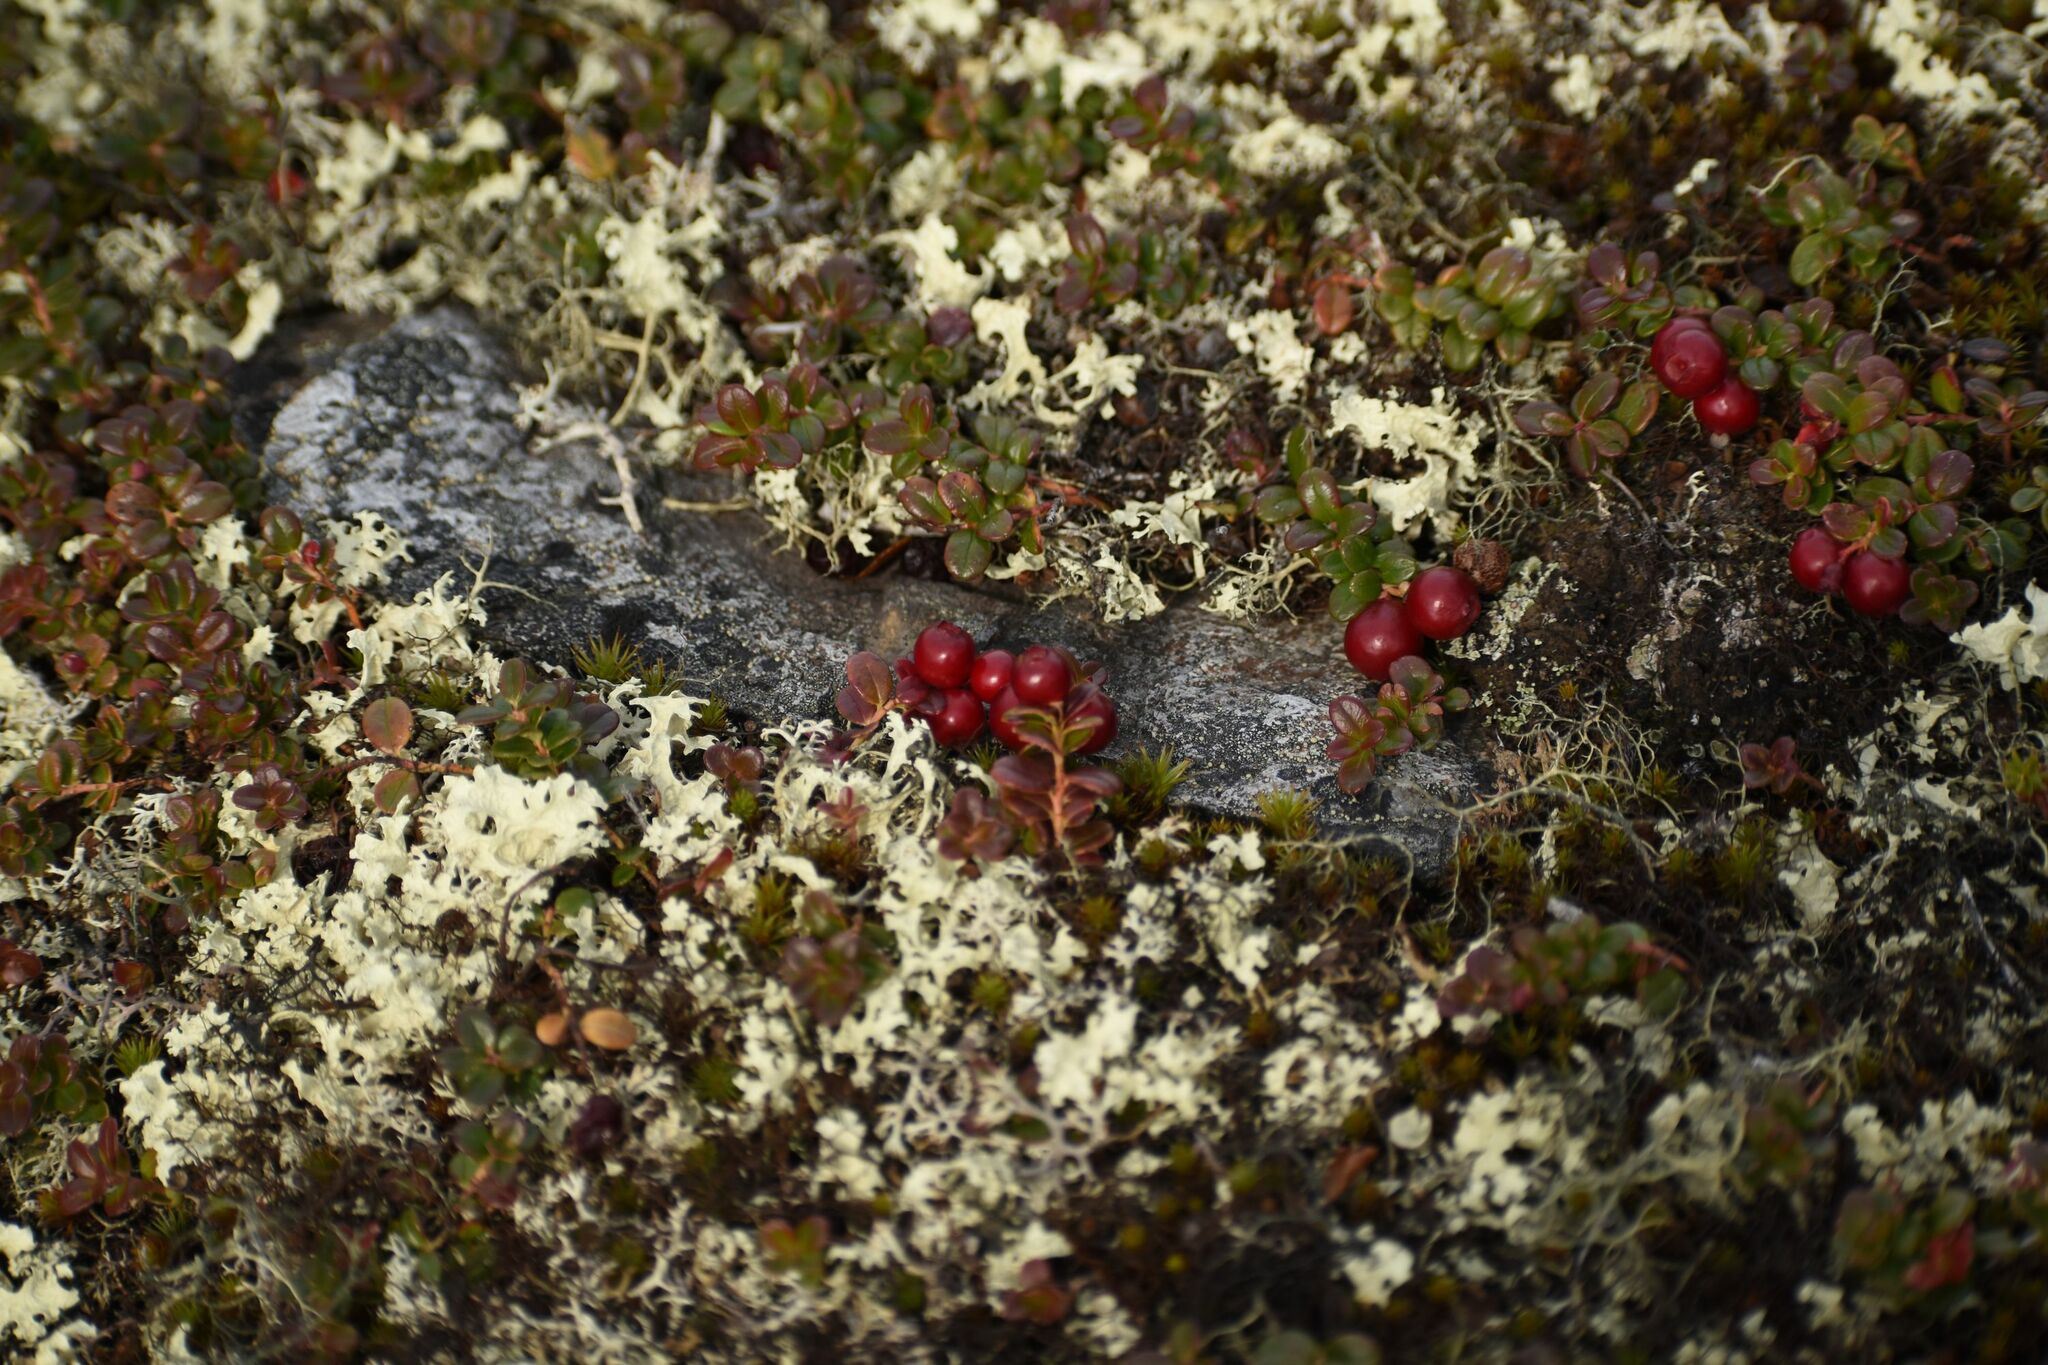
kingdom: Plantae
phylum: Tracheophyta
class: Magnoliopsida
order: Ericales
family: Ericaceae
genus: Vaccinium
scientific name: Vaccinium vitis-idaea
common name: Cowberry
